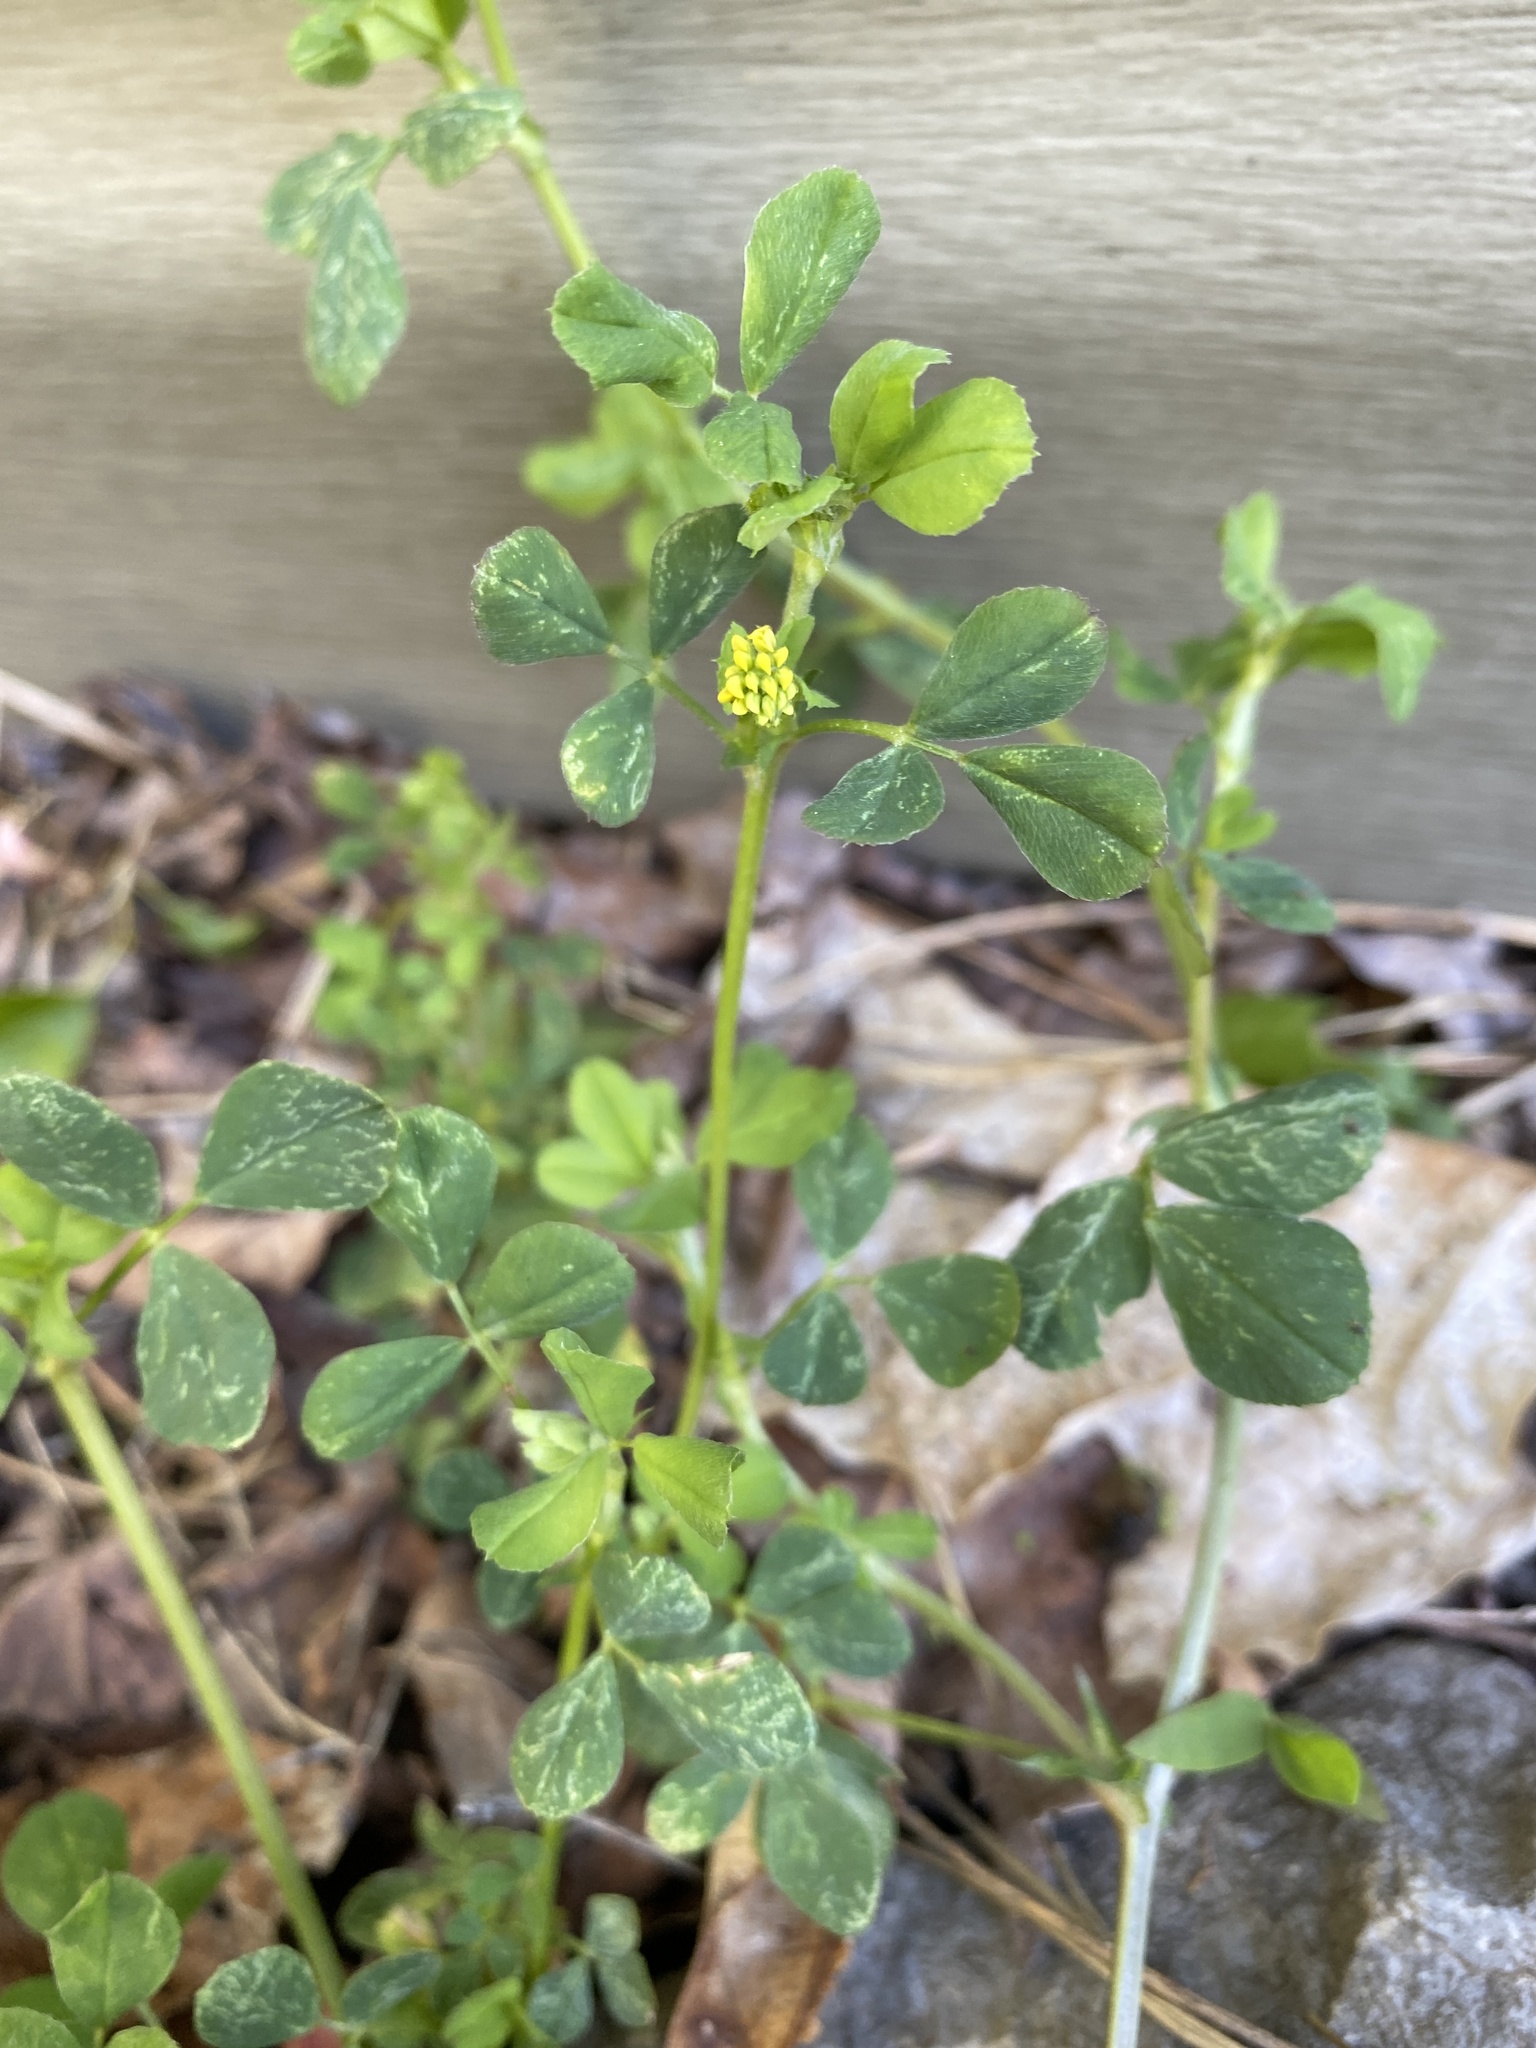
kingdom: Plantae
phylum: Tracheophyta
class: Magnoliopsida
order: Fabales
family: Fabaceae
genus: Medicago
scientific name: Medicago lupulina
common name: Black medick
